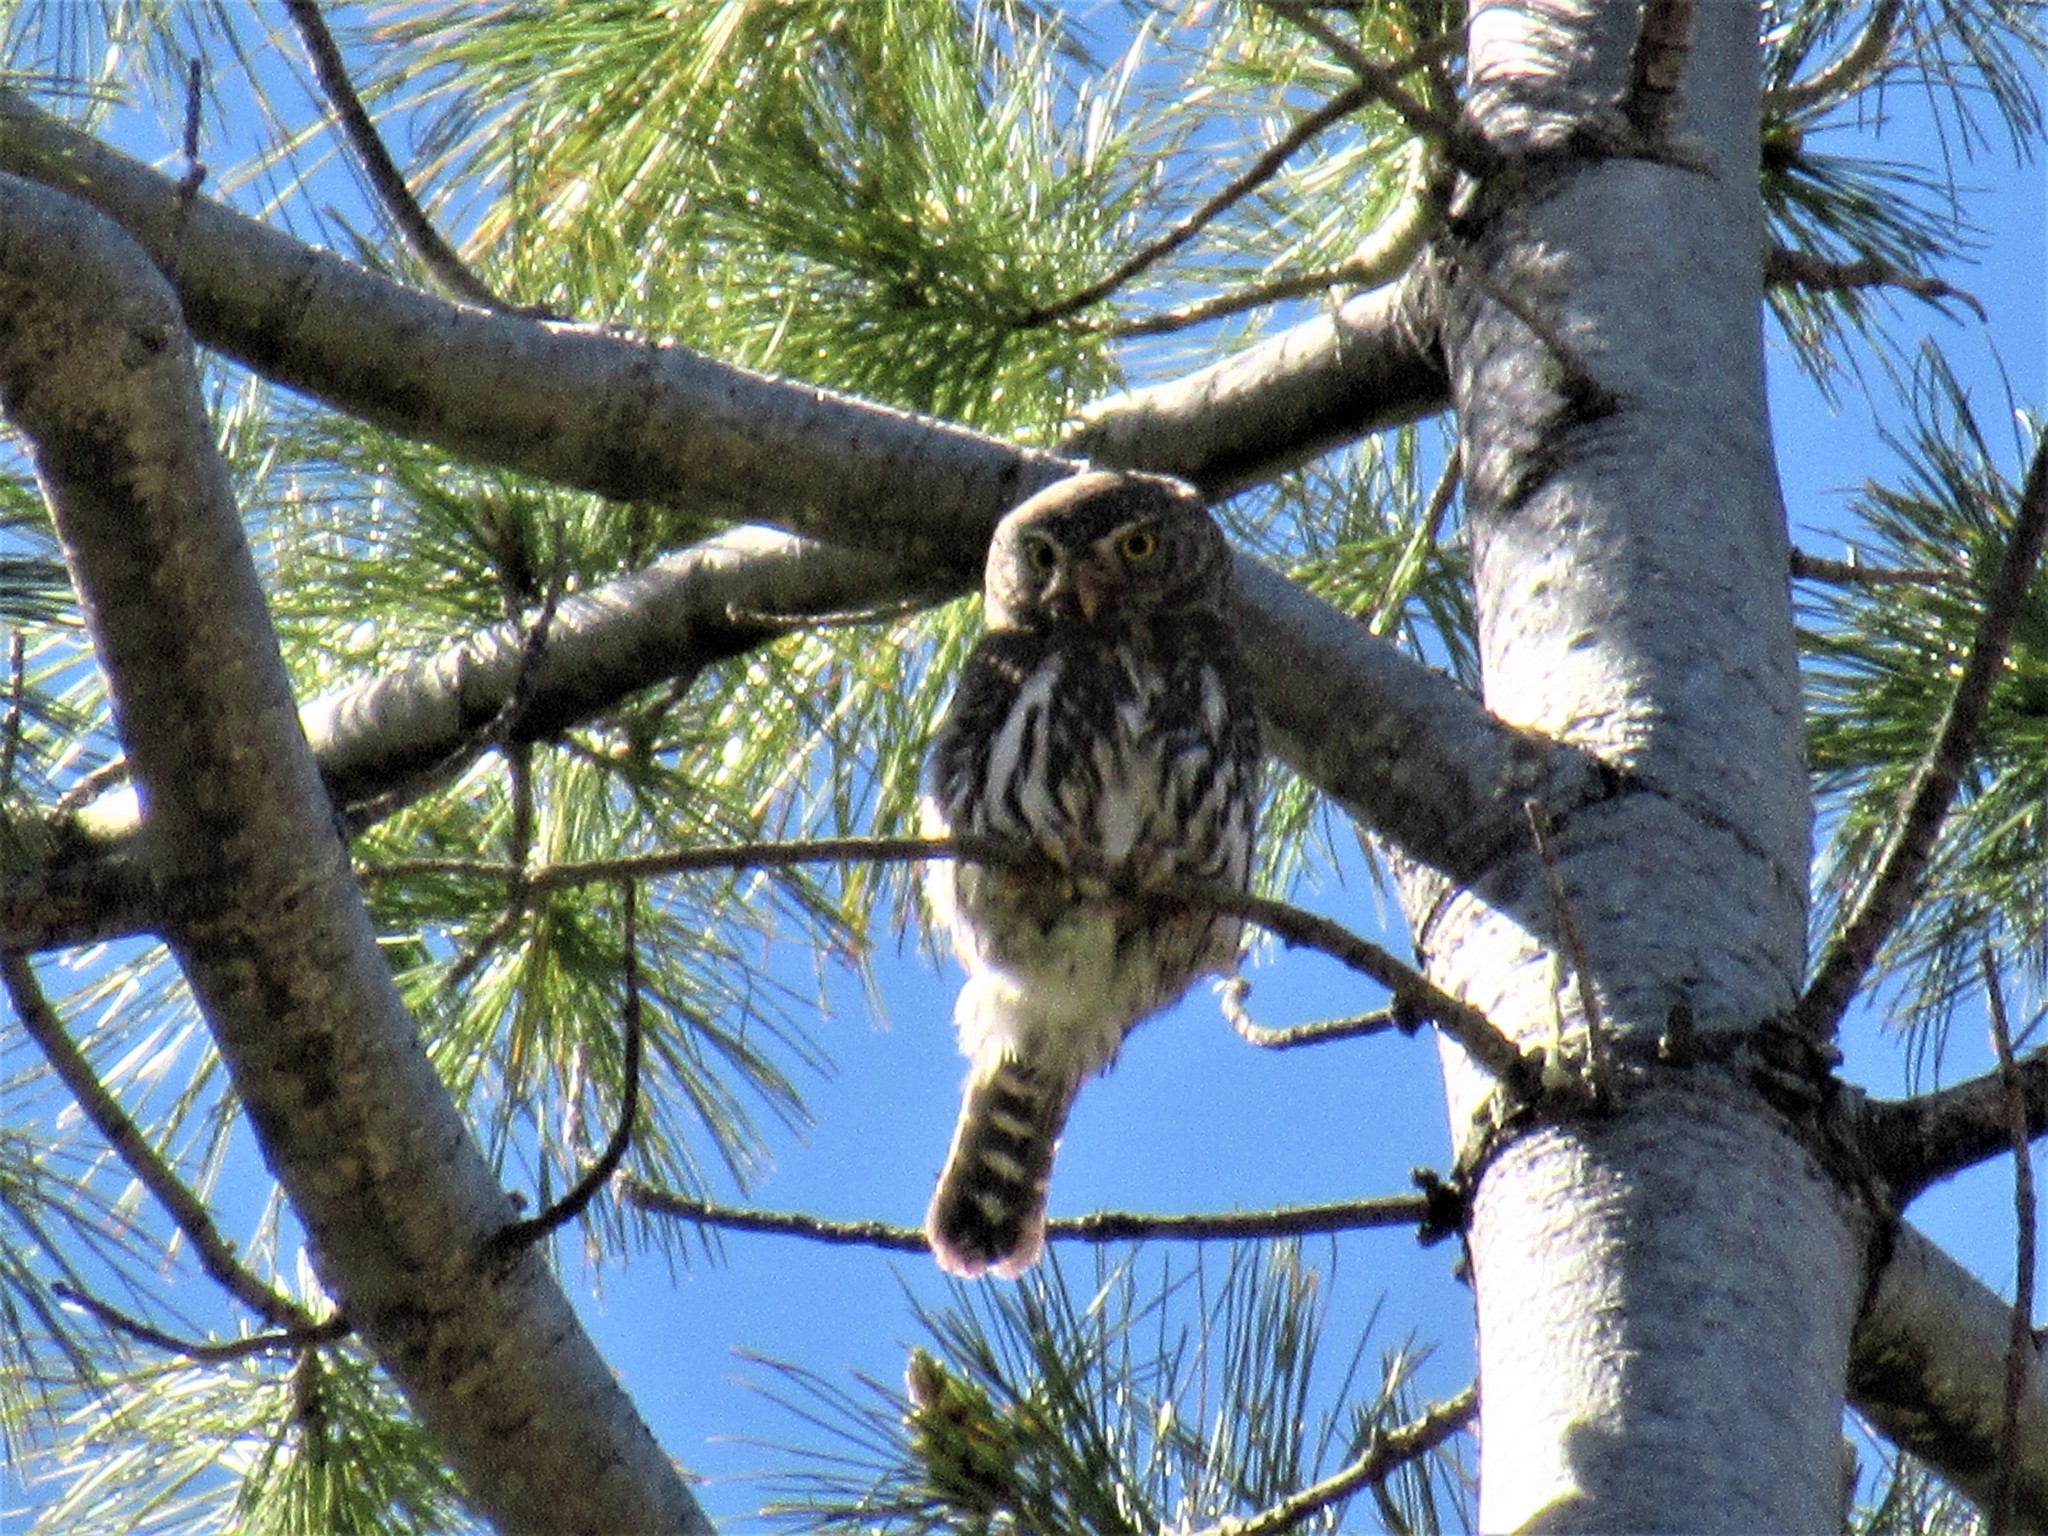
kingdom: Animalia
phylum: Chordata
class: Aves
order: Strigiformes
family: Strigidae
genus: Glaucidium
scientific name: Glaucidium gnoma
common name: Northern pygmy-owl
